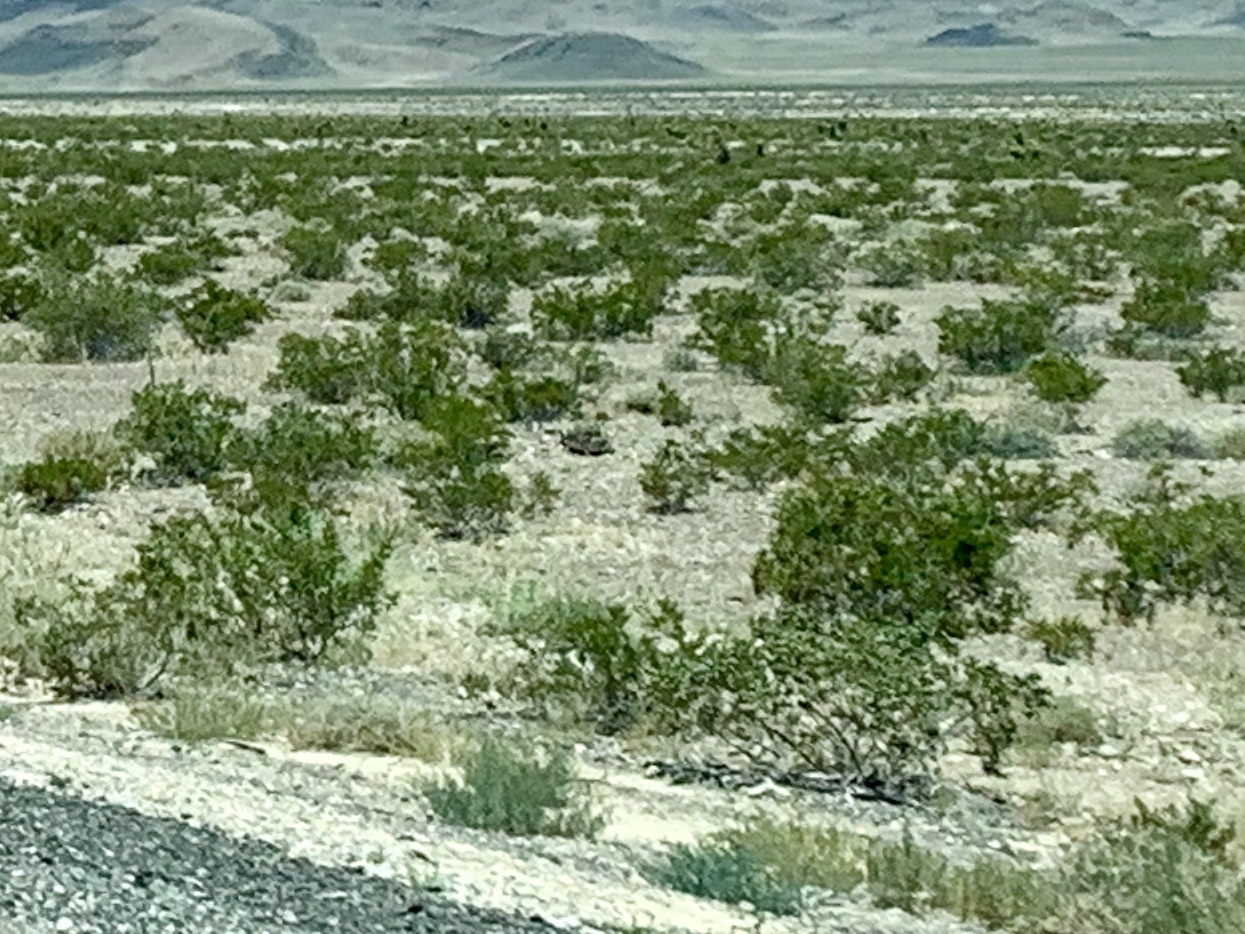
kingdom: Plantae
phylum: Tracheophyta
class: Magnoliopsida
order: Zygophyllales
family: Zygophyllaceae
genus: Larrea
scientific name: Larrea tridentata
